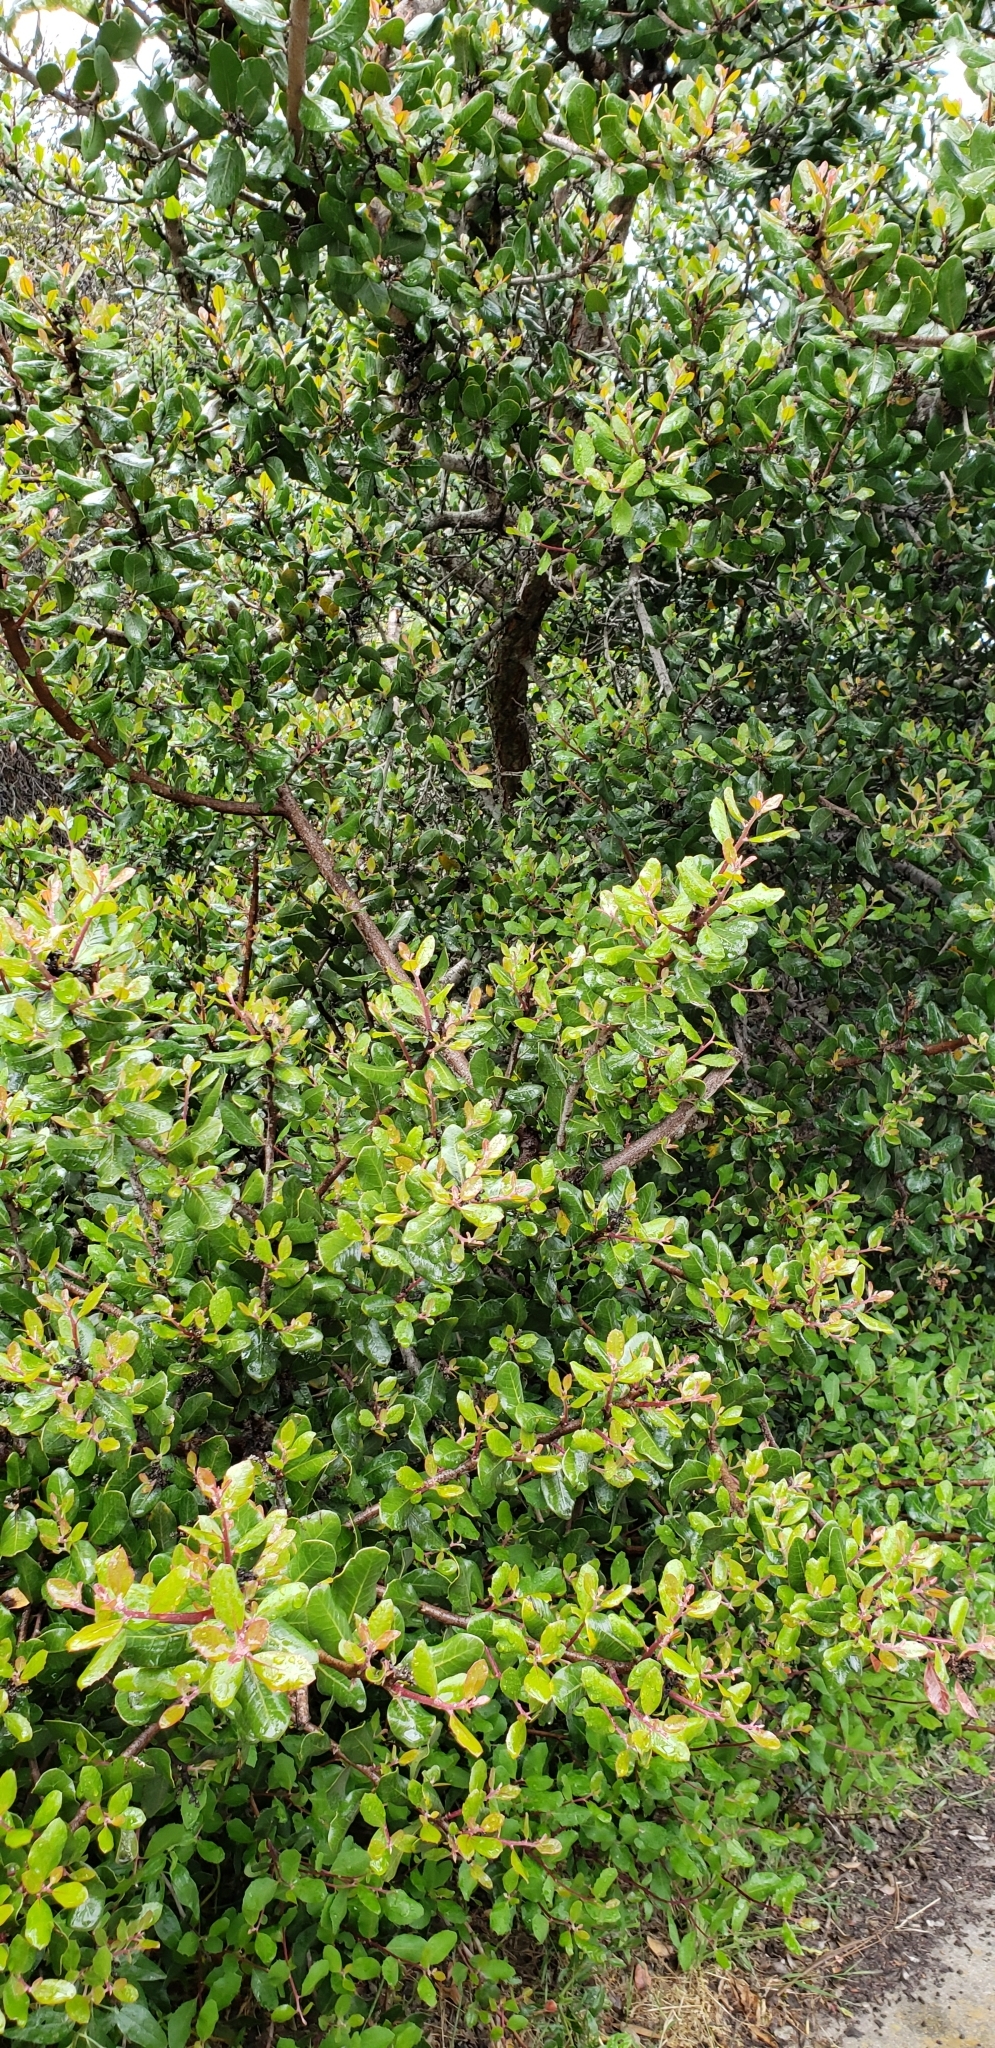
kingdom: Plantae
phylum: Tracheophyta
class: Magnoliopsida
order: Sapindales
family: Anacardiaceae
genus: Rhus
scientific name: Rhus integrifolia
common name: Lemonade sumac
